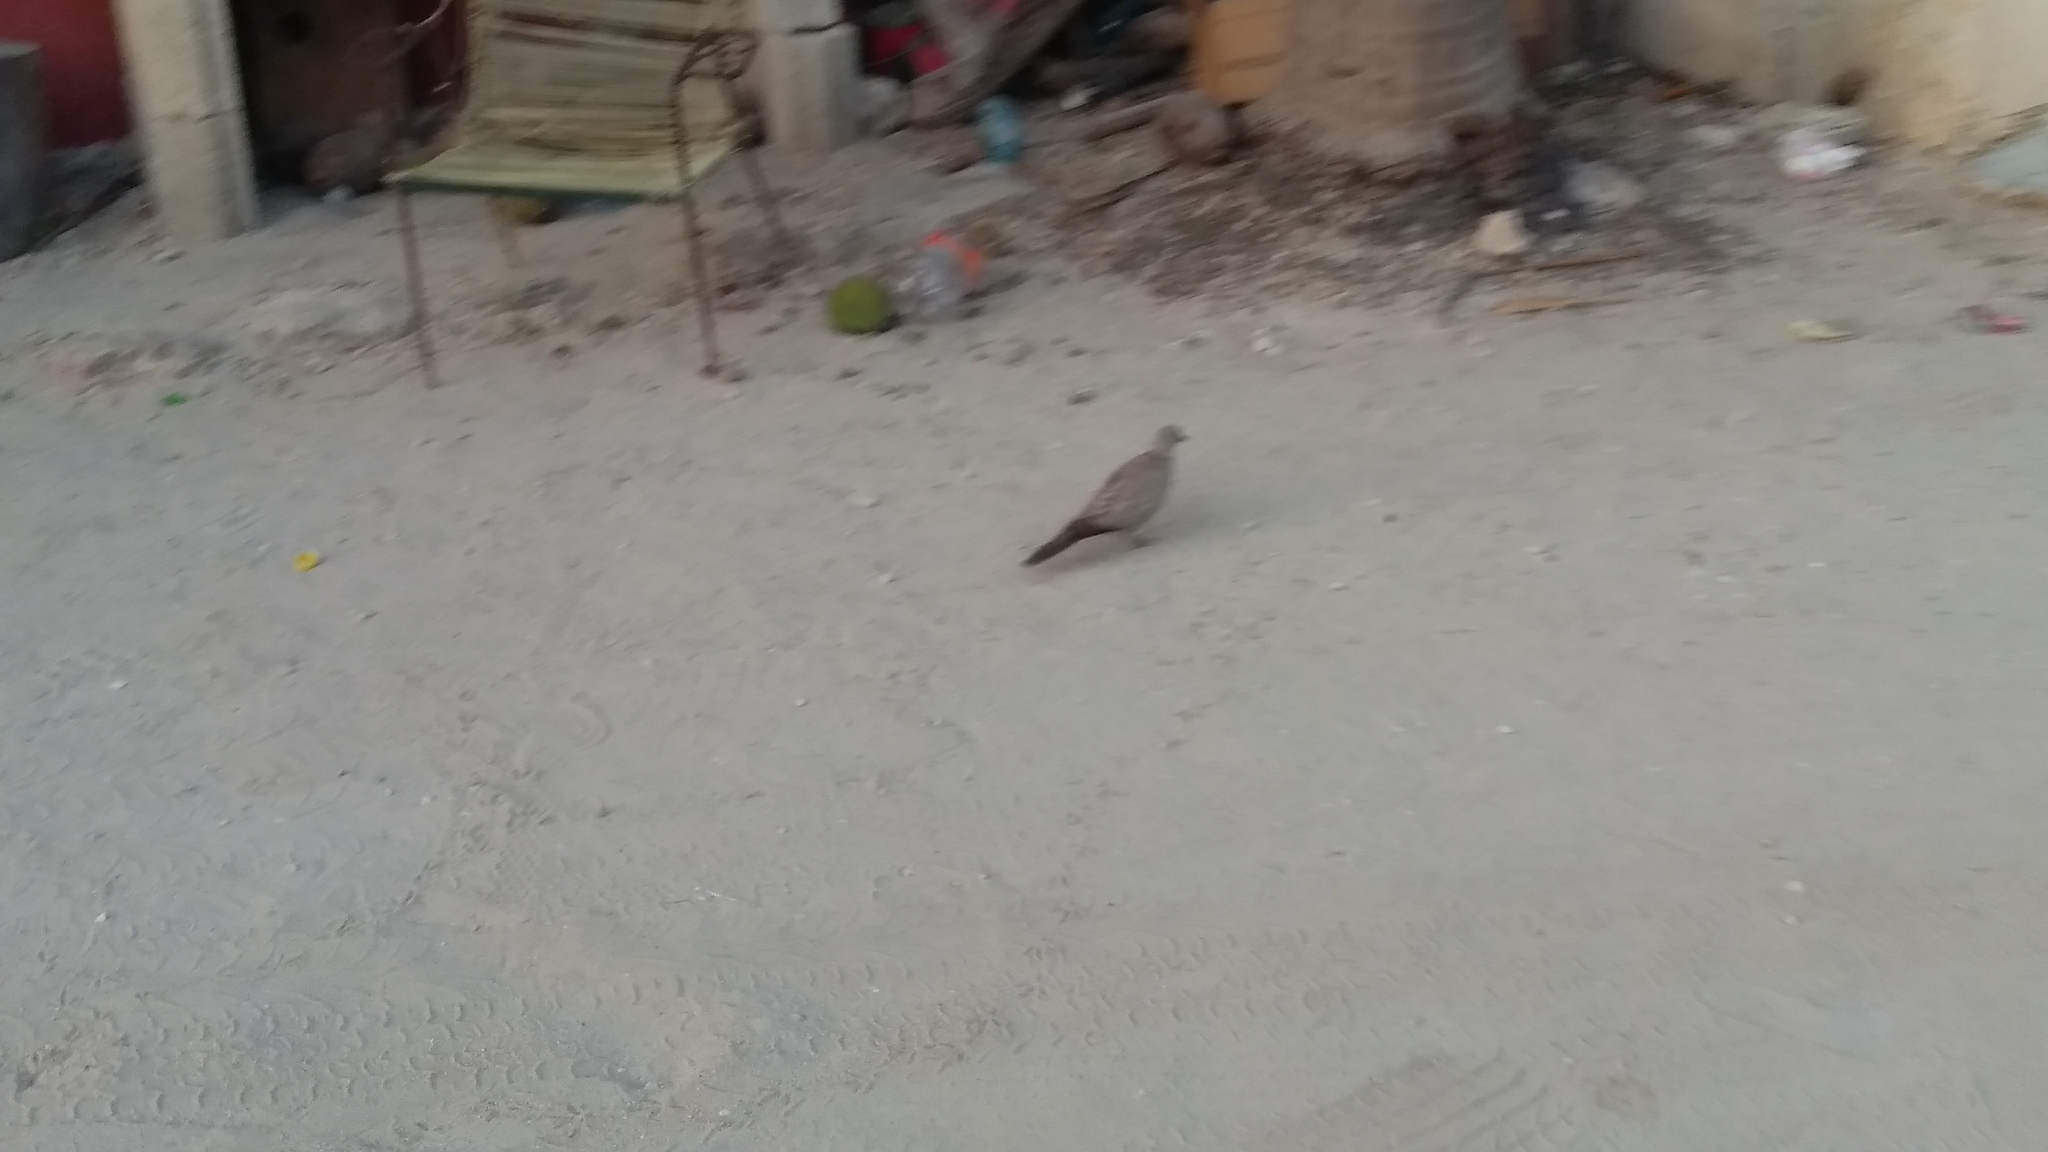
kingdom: Animalia
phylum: Chordata
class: Aves
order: Columbiformes
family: Columbidae
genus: Streptopelia
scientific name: Streptopelia decaocto
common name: Eurasian collared dove
